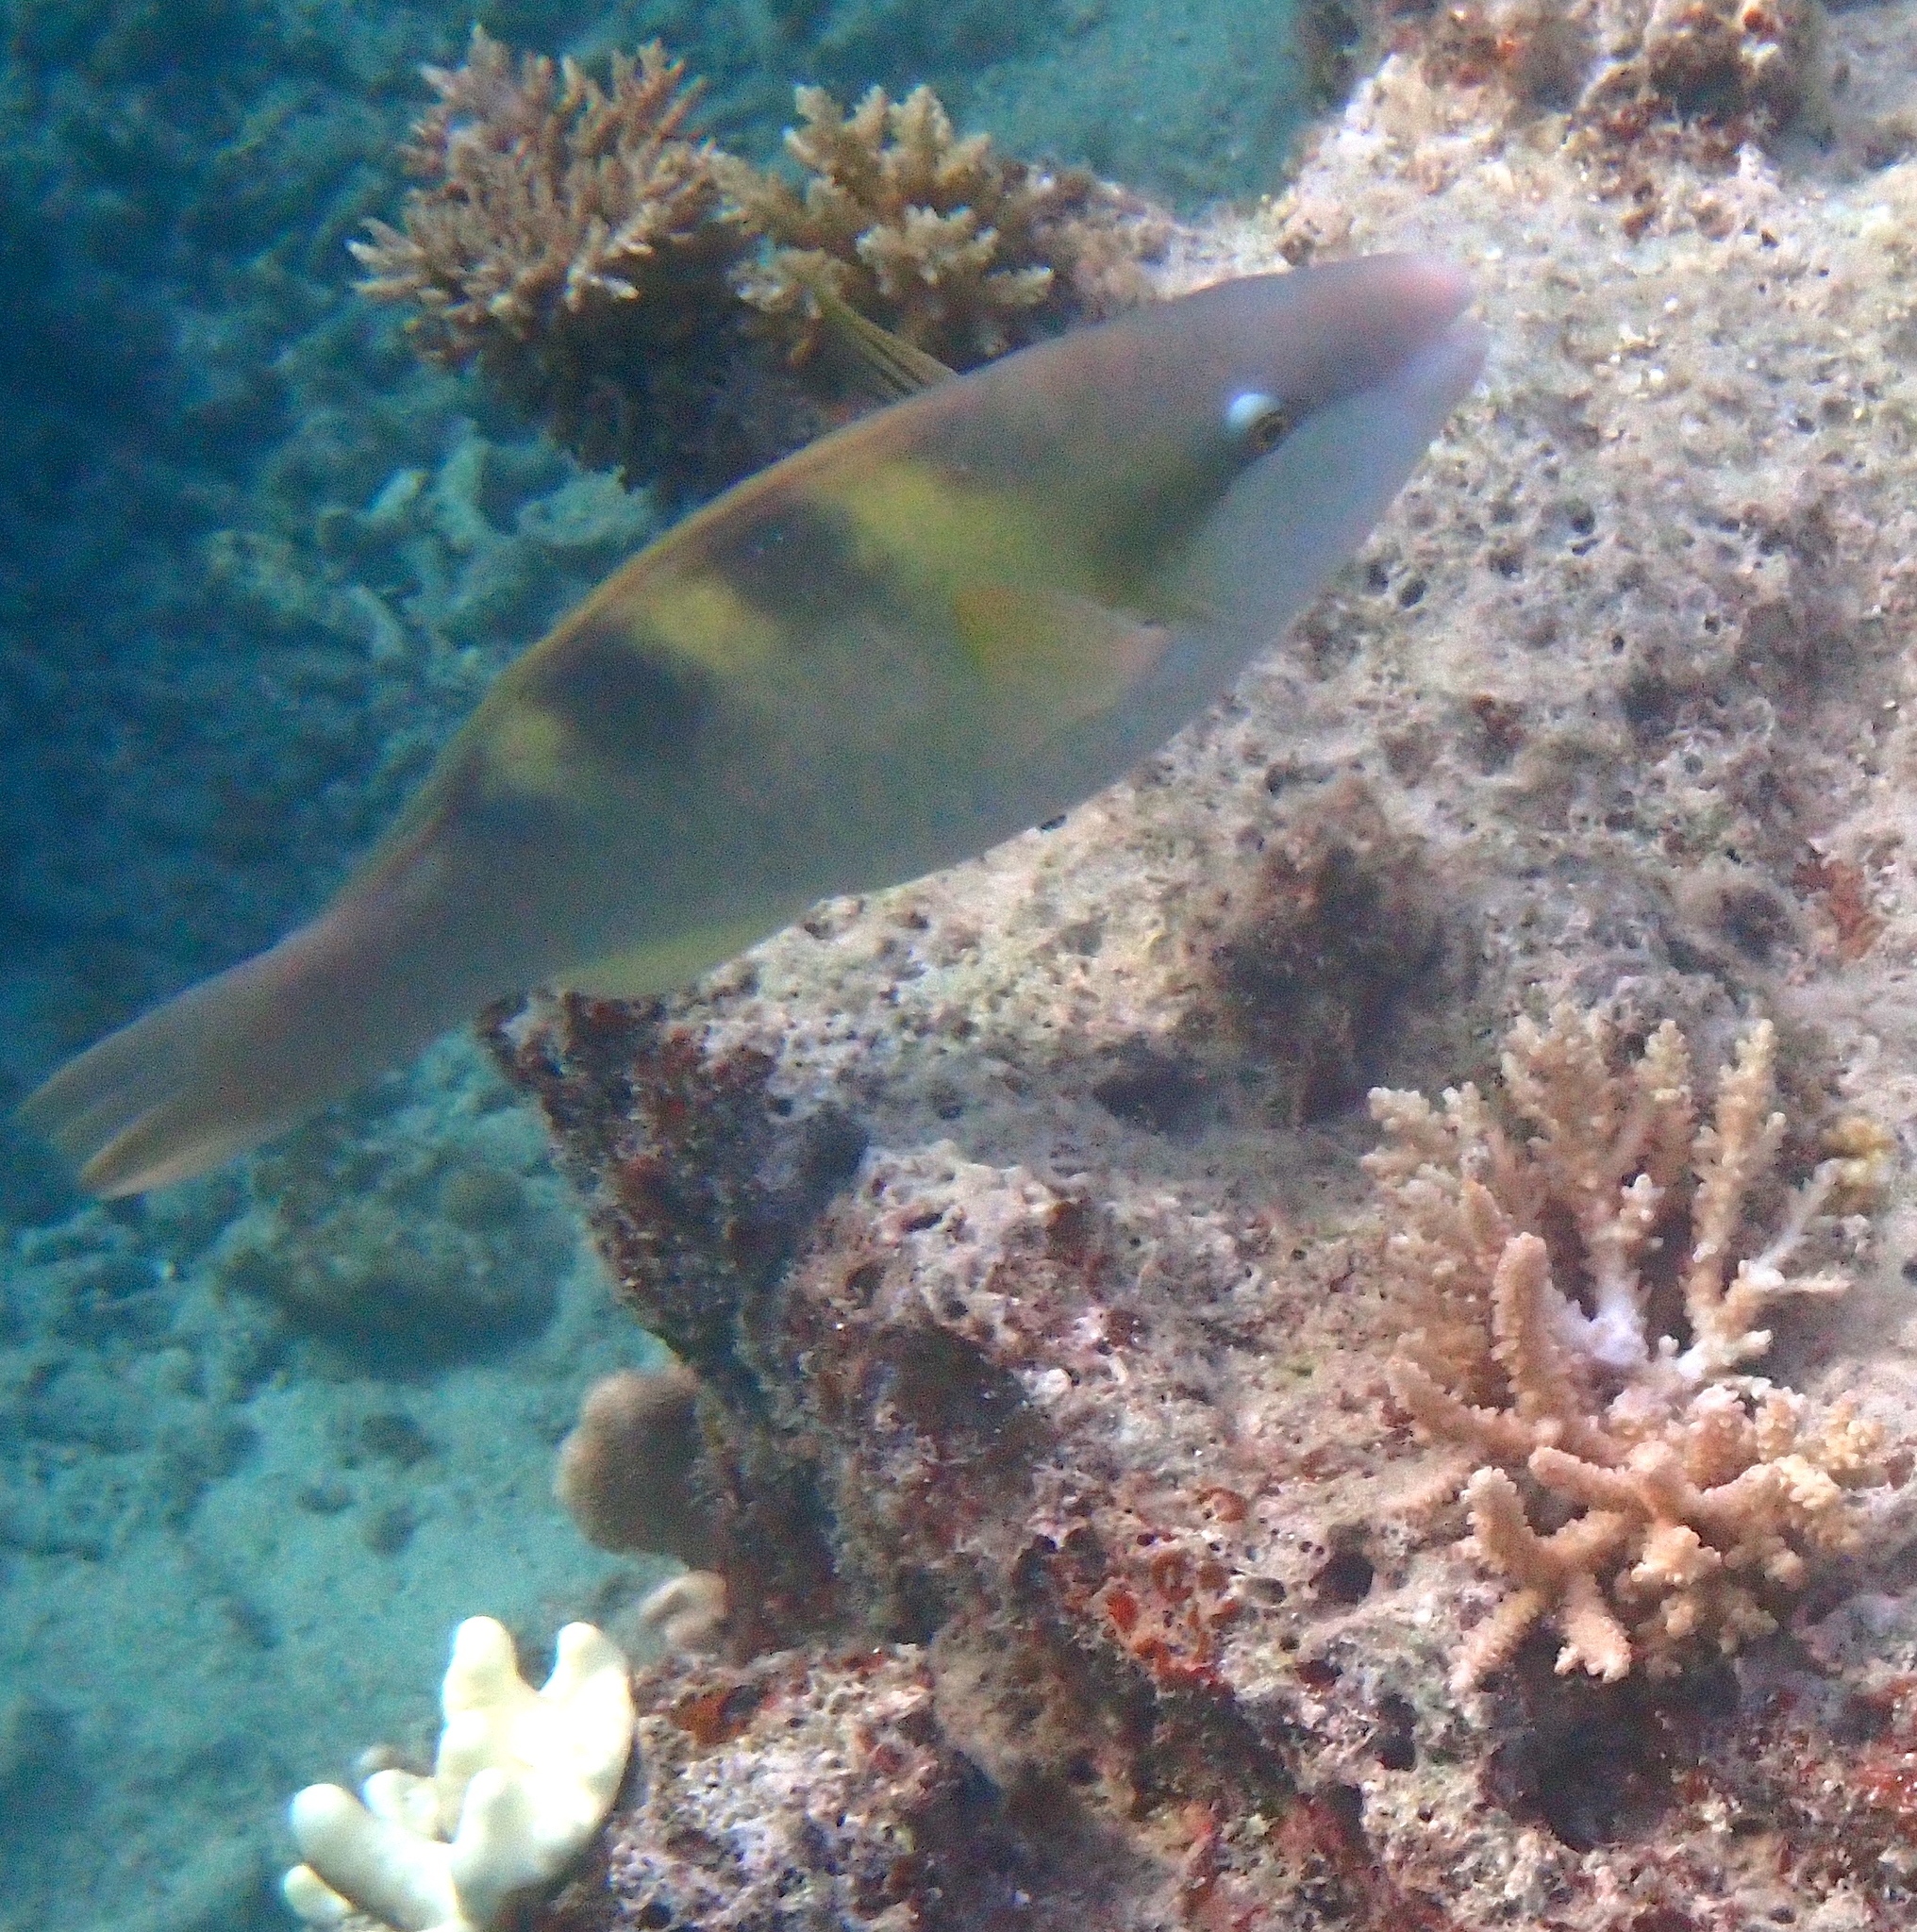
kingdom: Animalia
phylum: Chordata
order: Perciformes
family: Scaridae
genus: Scarus
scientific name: Scarus dimidiatus
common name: Yellowbarred parrotfish
